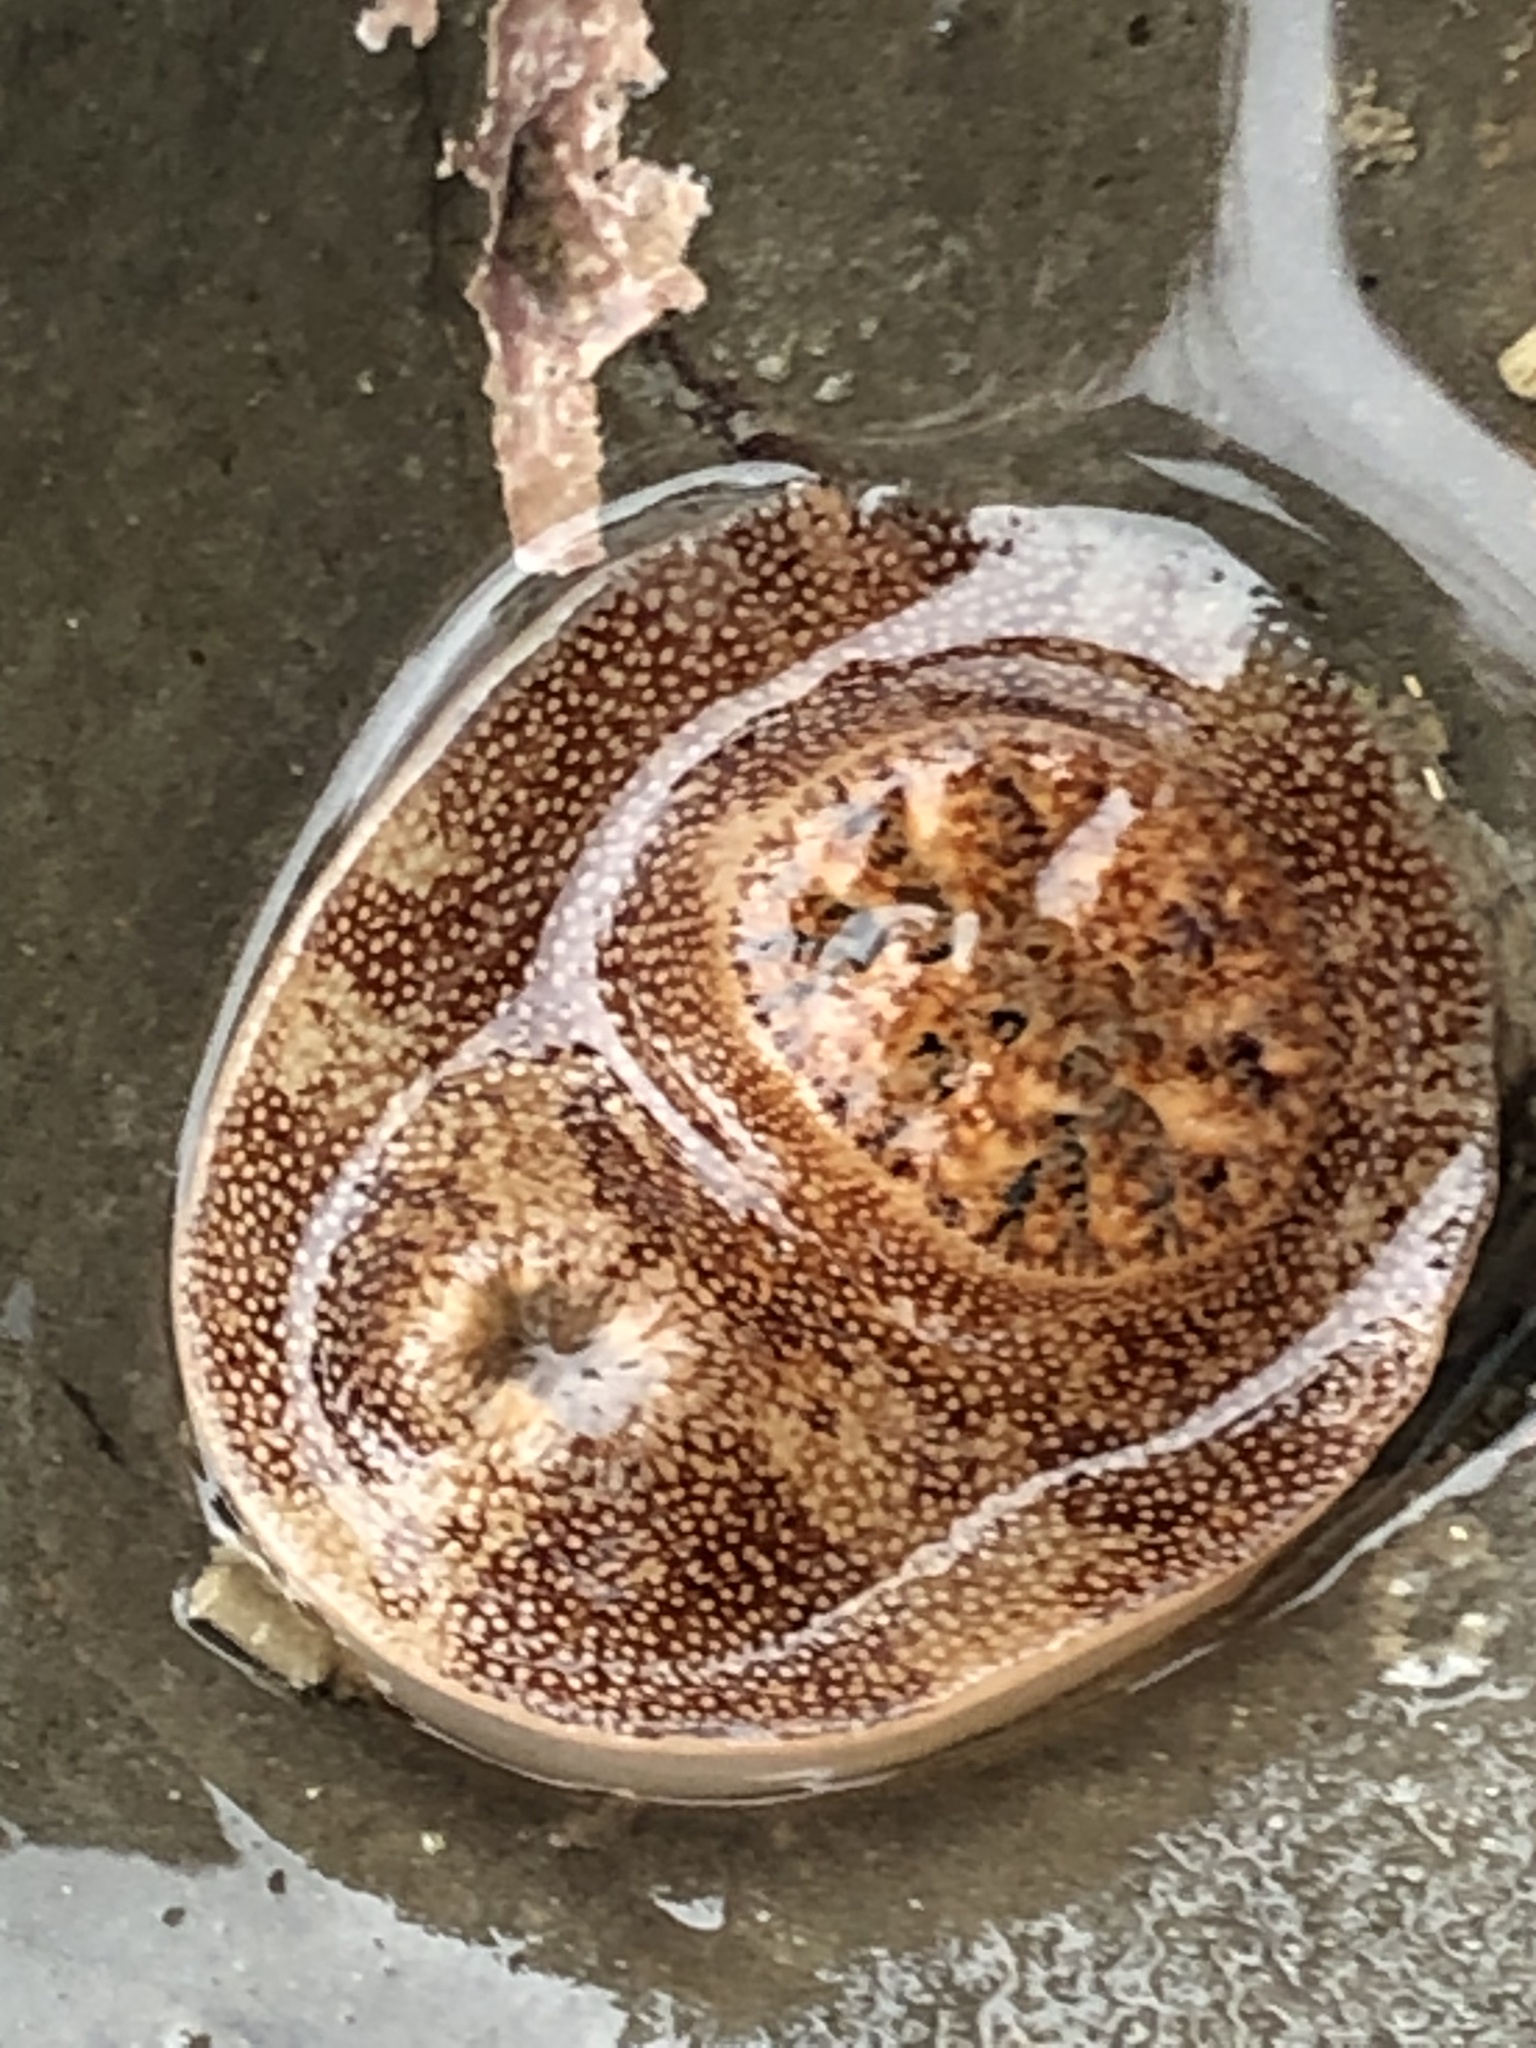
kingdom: Animalia
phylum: Mollusca
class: Bivalvia
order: Myida
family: Pholadidae
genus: Parapholas
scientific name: Parapholas californica
